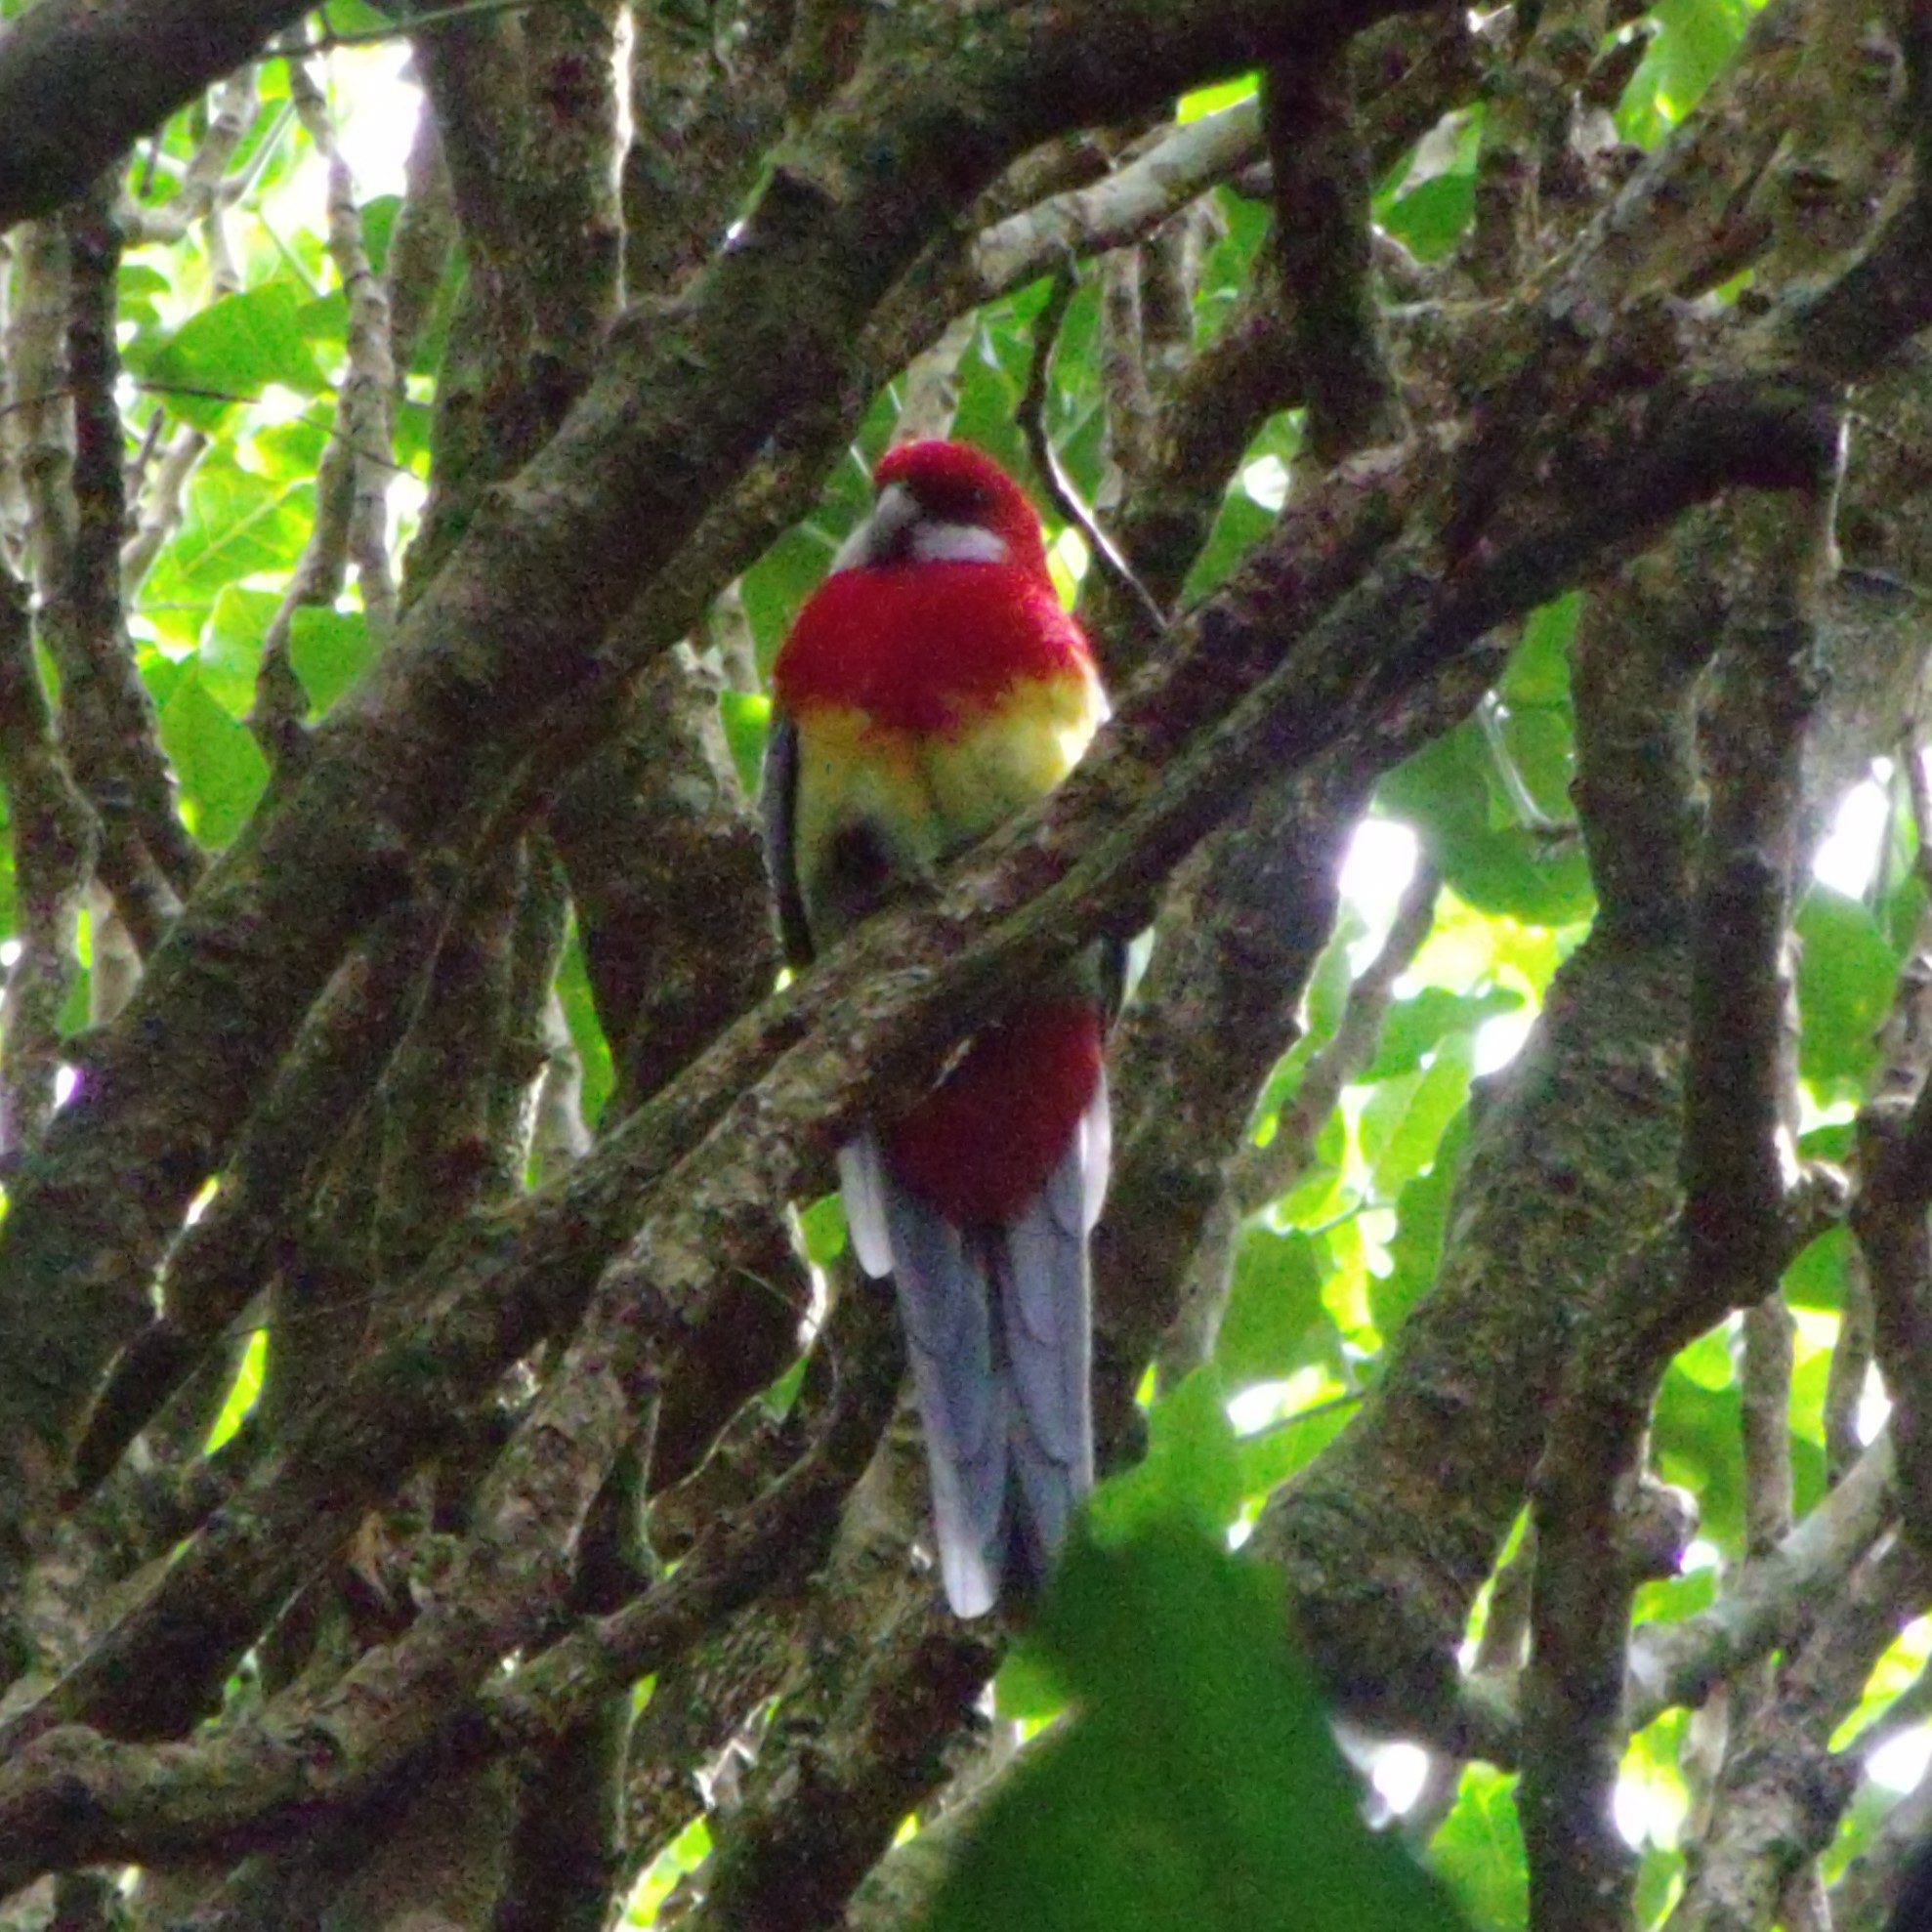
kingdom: Animalia
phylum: Chordata
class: Aves
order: Psittaciformes
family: Psittacidae
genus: Platycercus
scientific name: Platycercus eximius
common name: Eastern rosella
